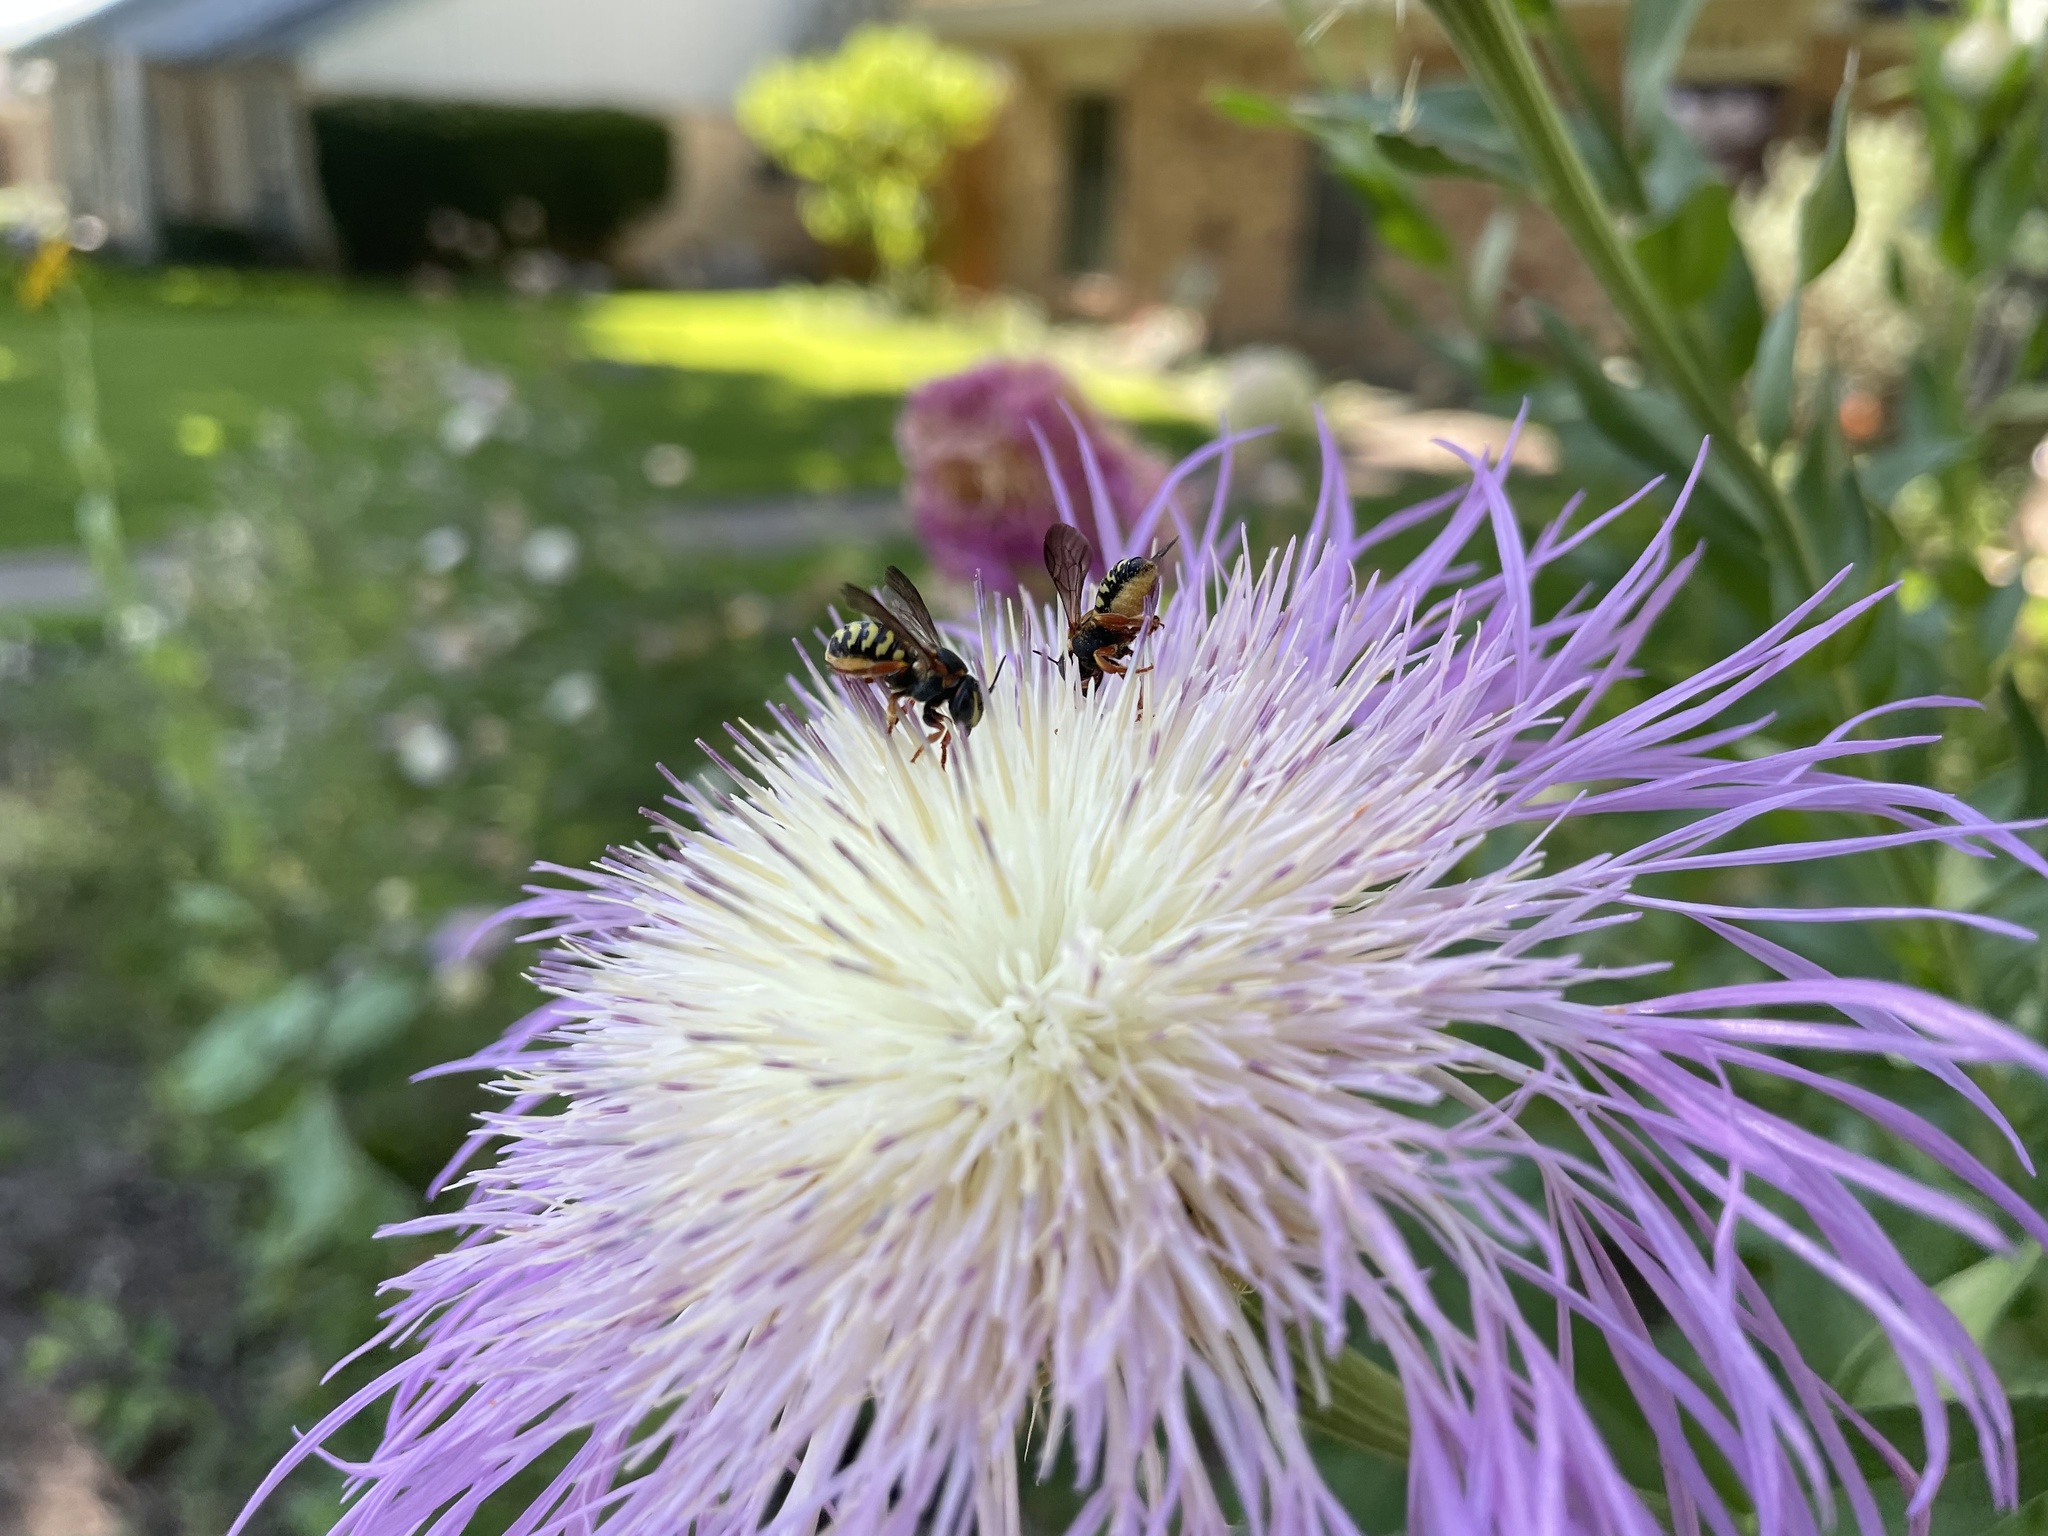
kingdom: Animalia
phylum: Arthropoda
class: Insecta
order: Hymenoptera
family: Megachilidae
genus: Dianthidium
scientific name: Dianthidium curvatum
